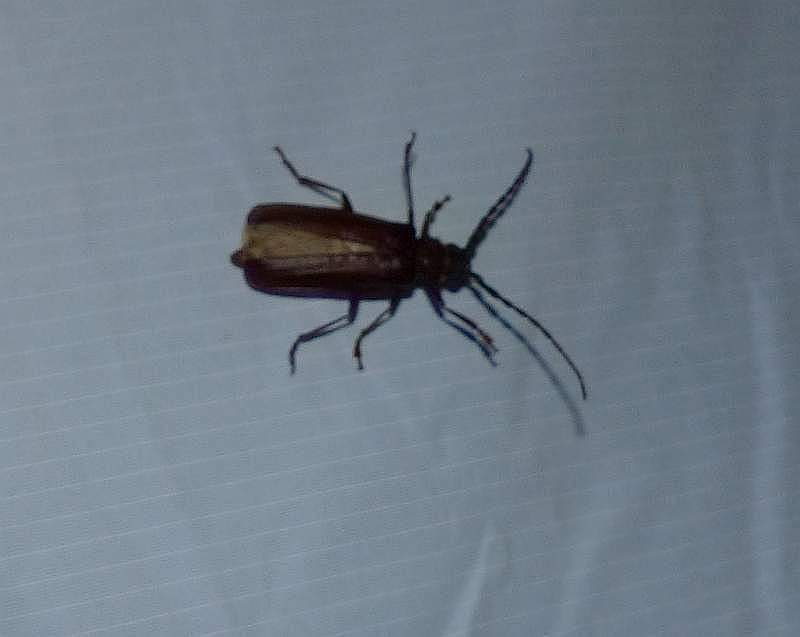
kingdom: Animalia
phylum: Arthropoda
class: Insecta
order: Coleoptera
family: Cerambycidae
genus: Orthosoma
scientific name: Orthosoma brunneum
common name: Brown prionid beetle
